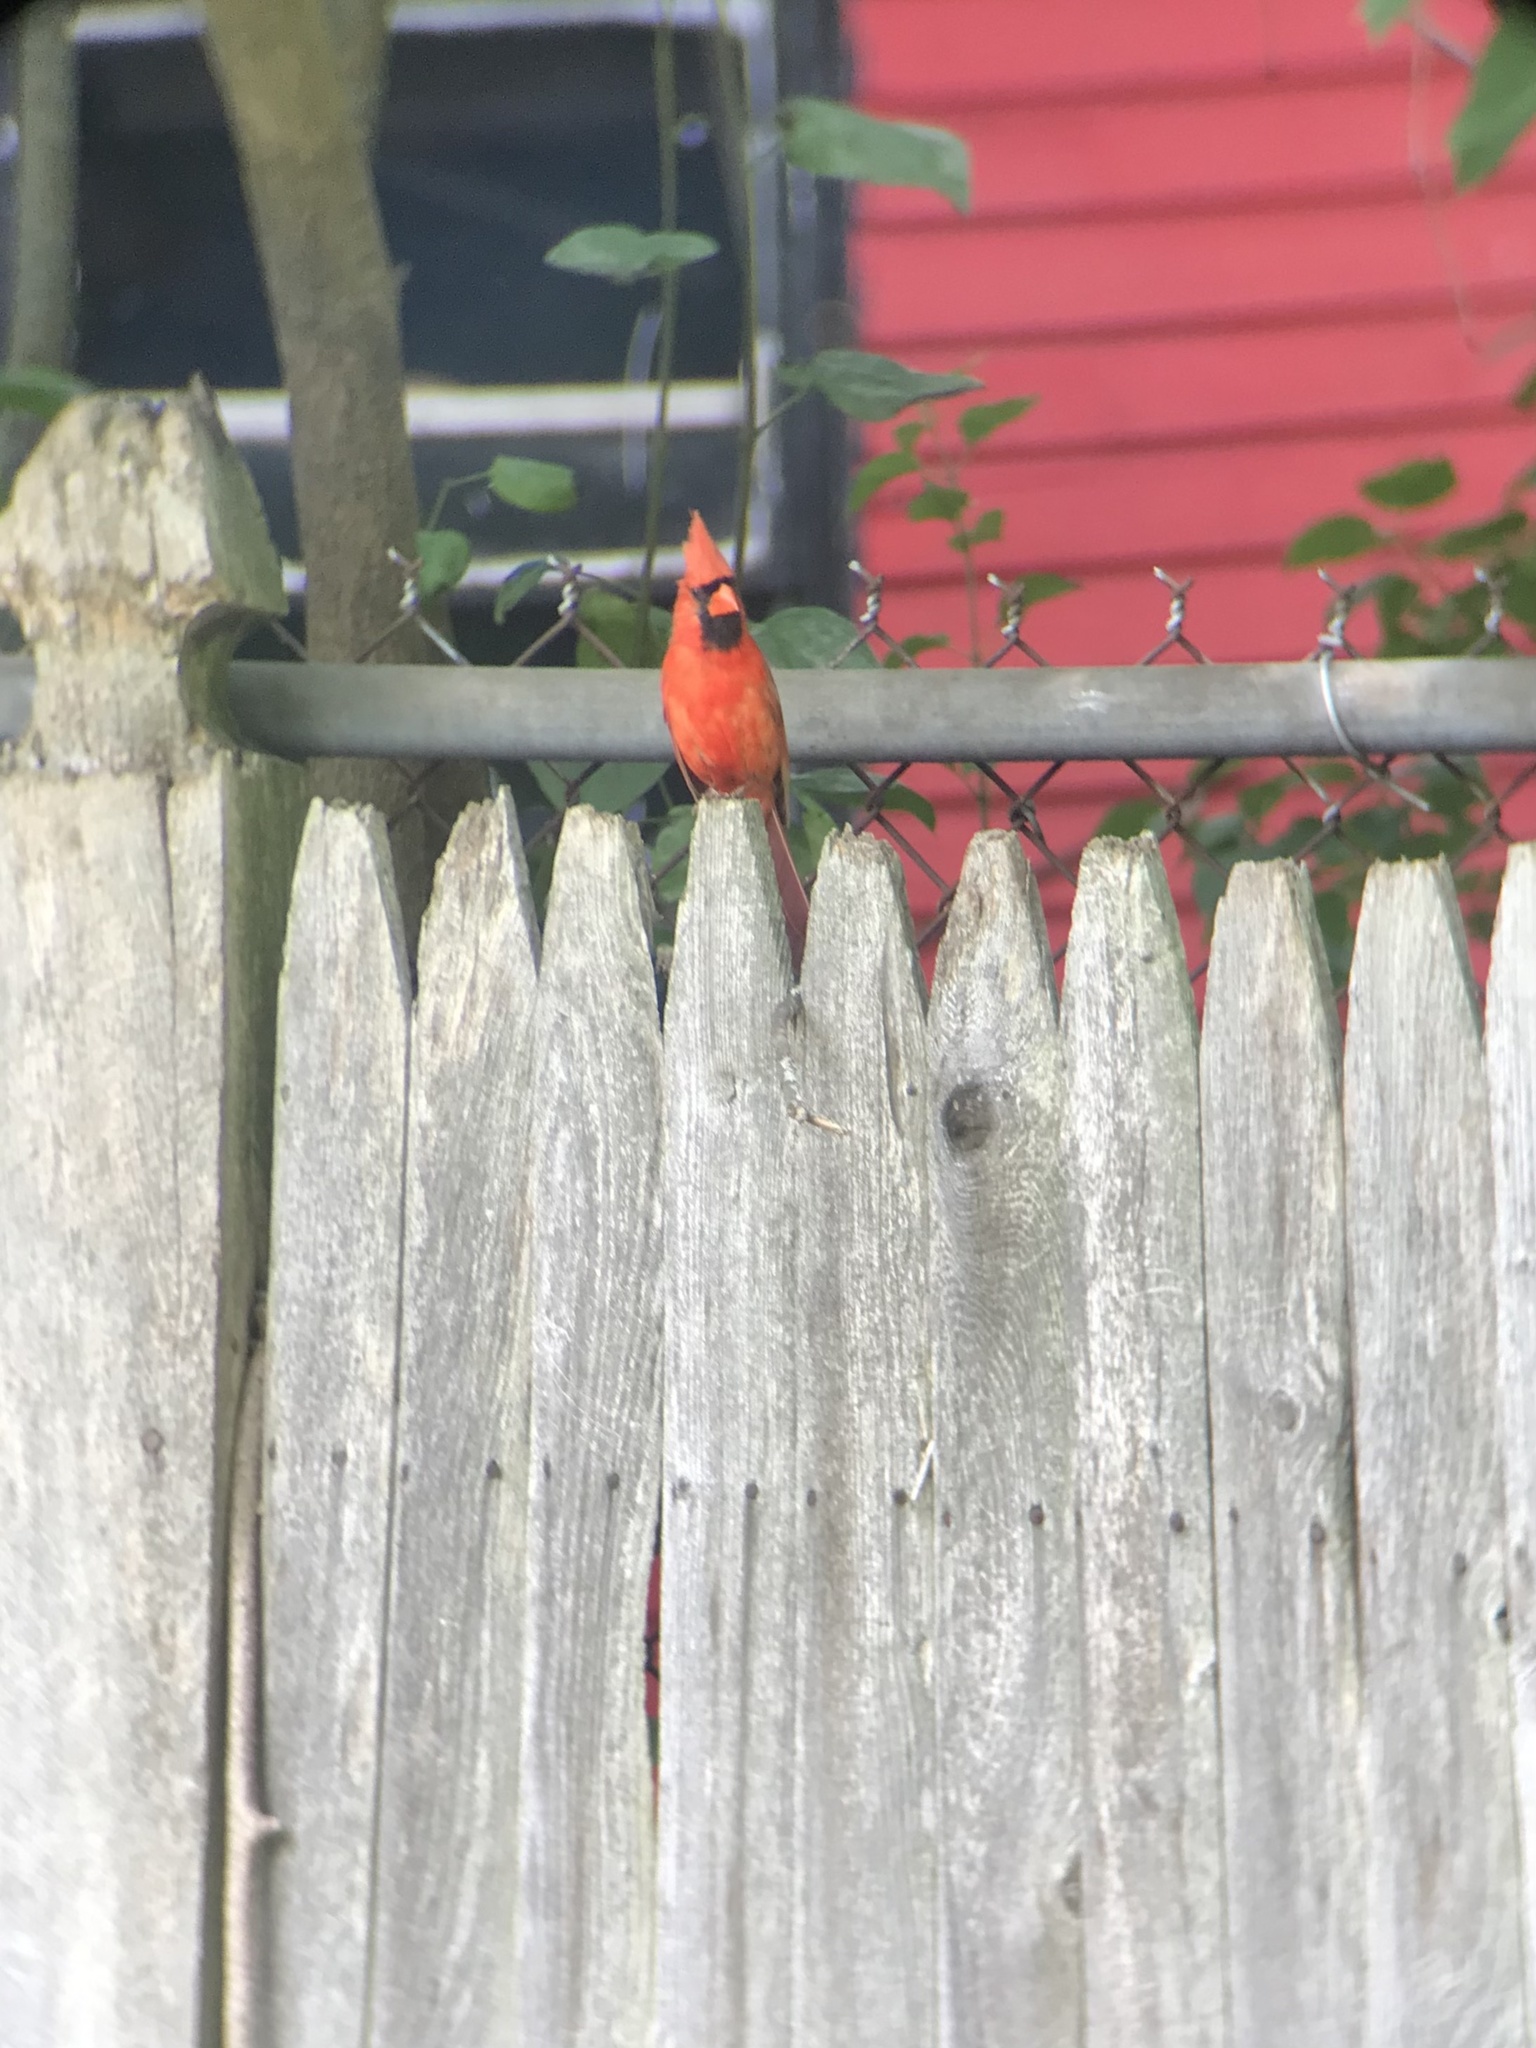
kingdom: Animalia
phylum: Chordata
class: Aves
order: Passeriformes
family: Cardinalidae
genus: Cardinalis
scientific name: Cardinalis cardinalis
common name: Northern cardinal
